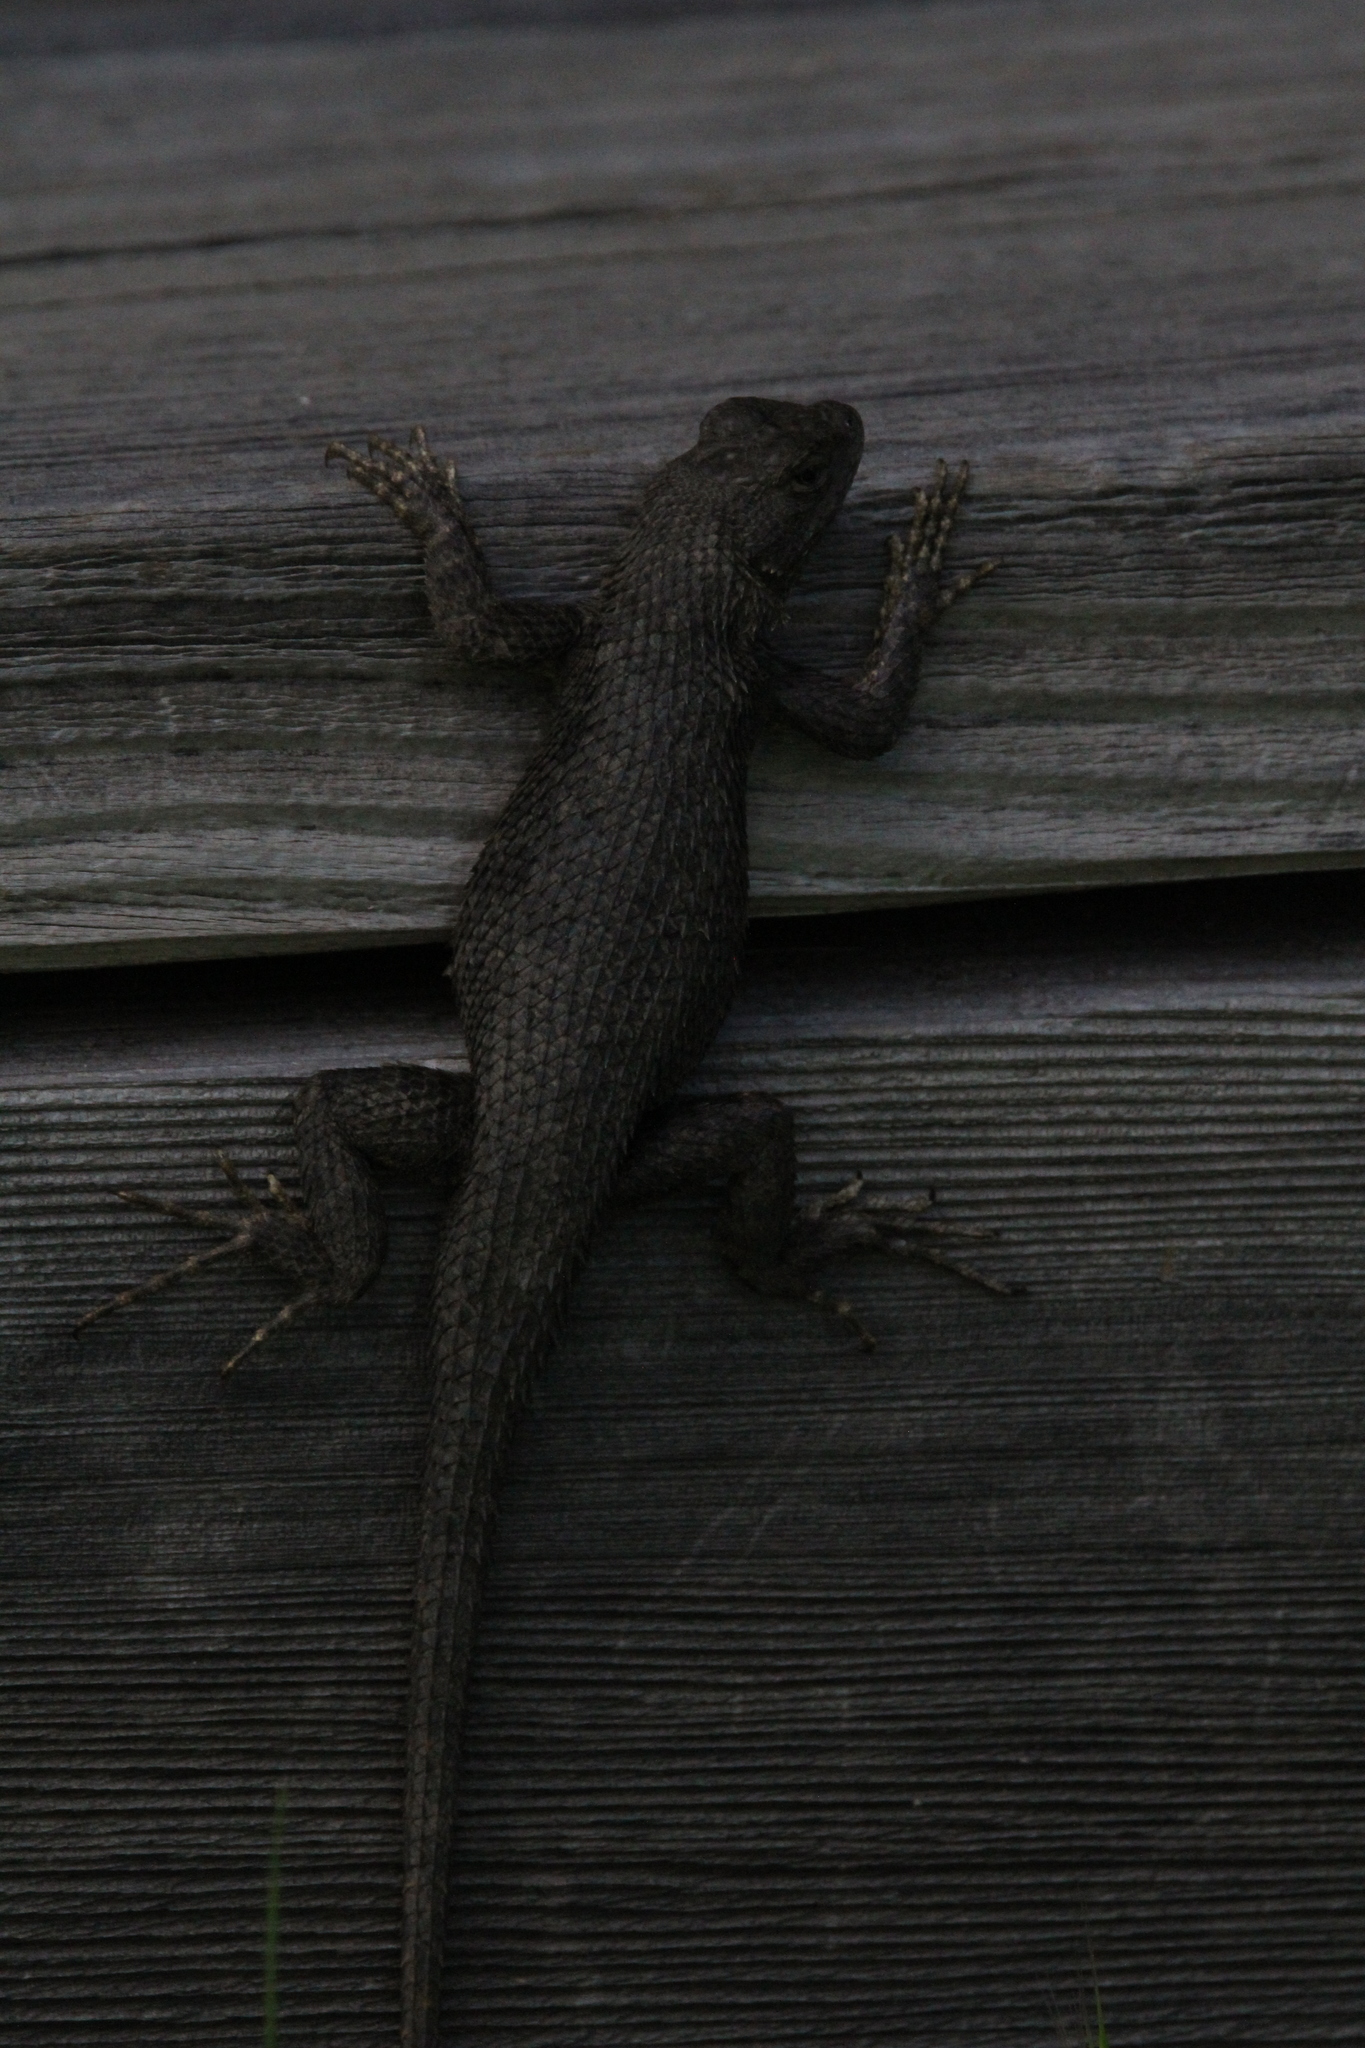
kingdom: Animalia
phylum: Chordata
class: Squamata
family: Phrynosomatidae
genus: Sceloporus
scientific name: Sceloporus occidentalis
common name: Western fence lizard
